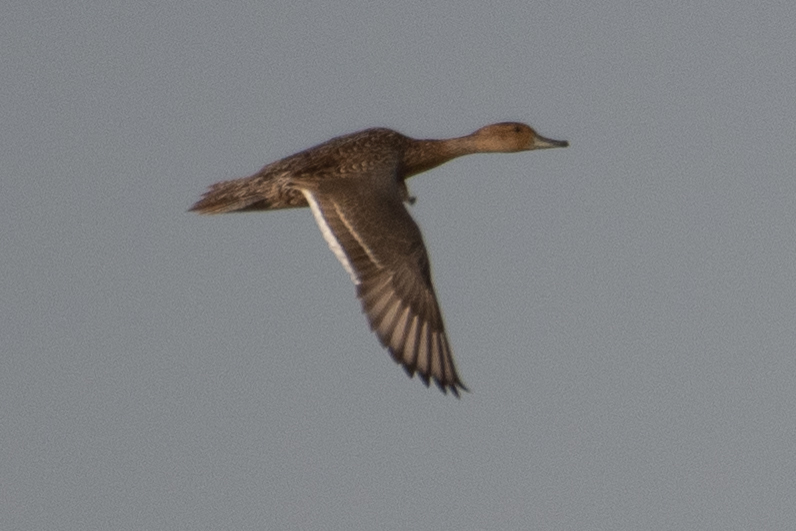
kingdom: Animalia
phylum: Chordata
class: Aves
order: Anseriformes
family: Anatidae
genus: Anas
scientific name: Anas acuta
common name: Northern pintail
